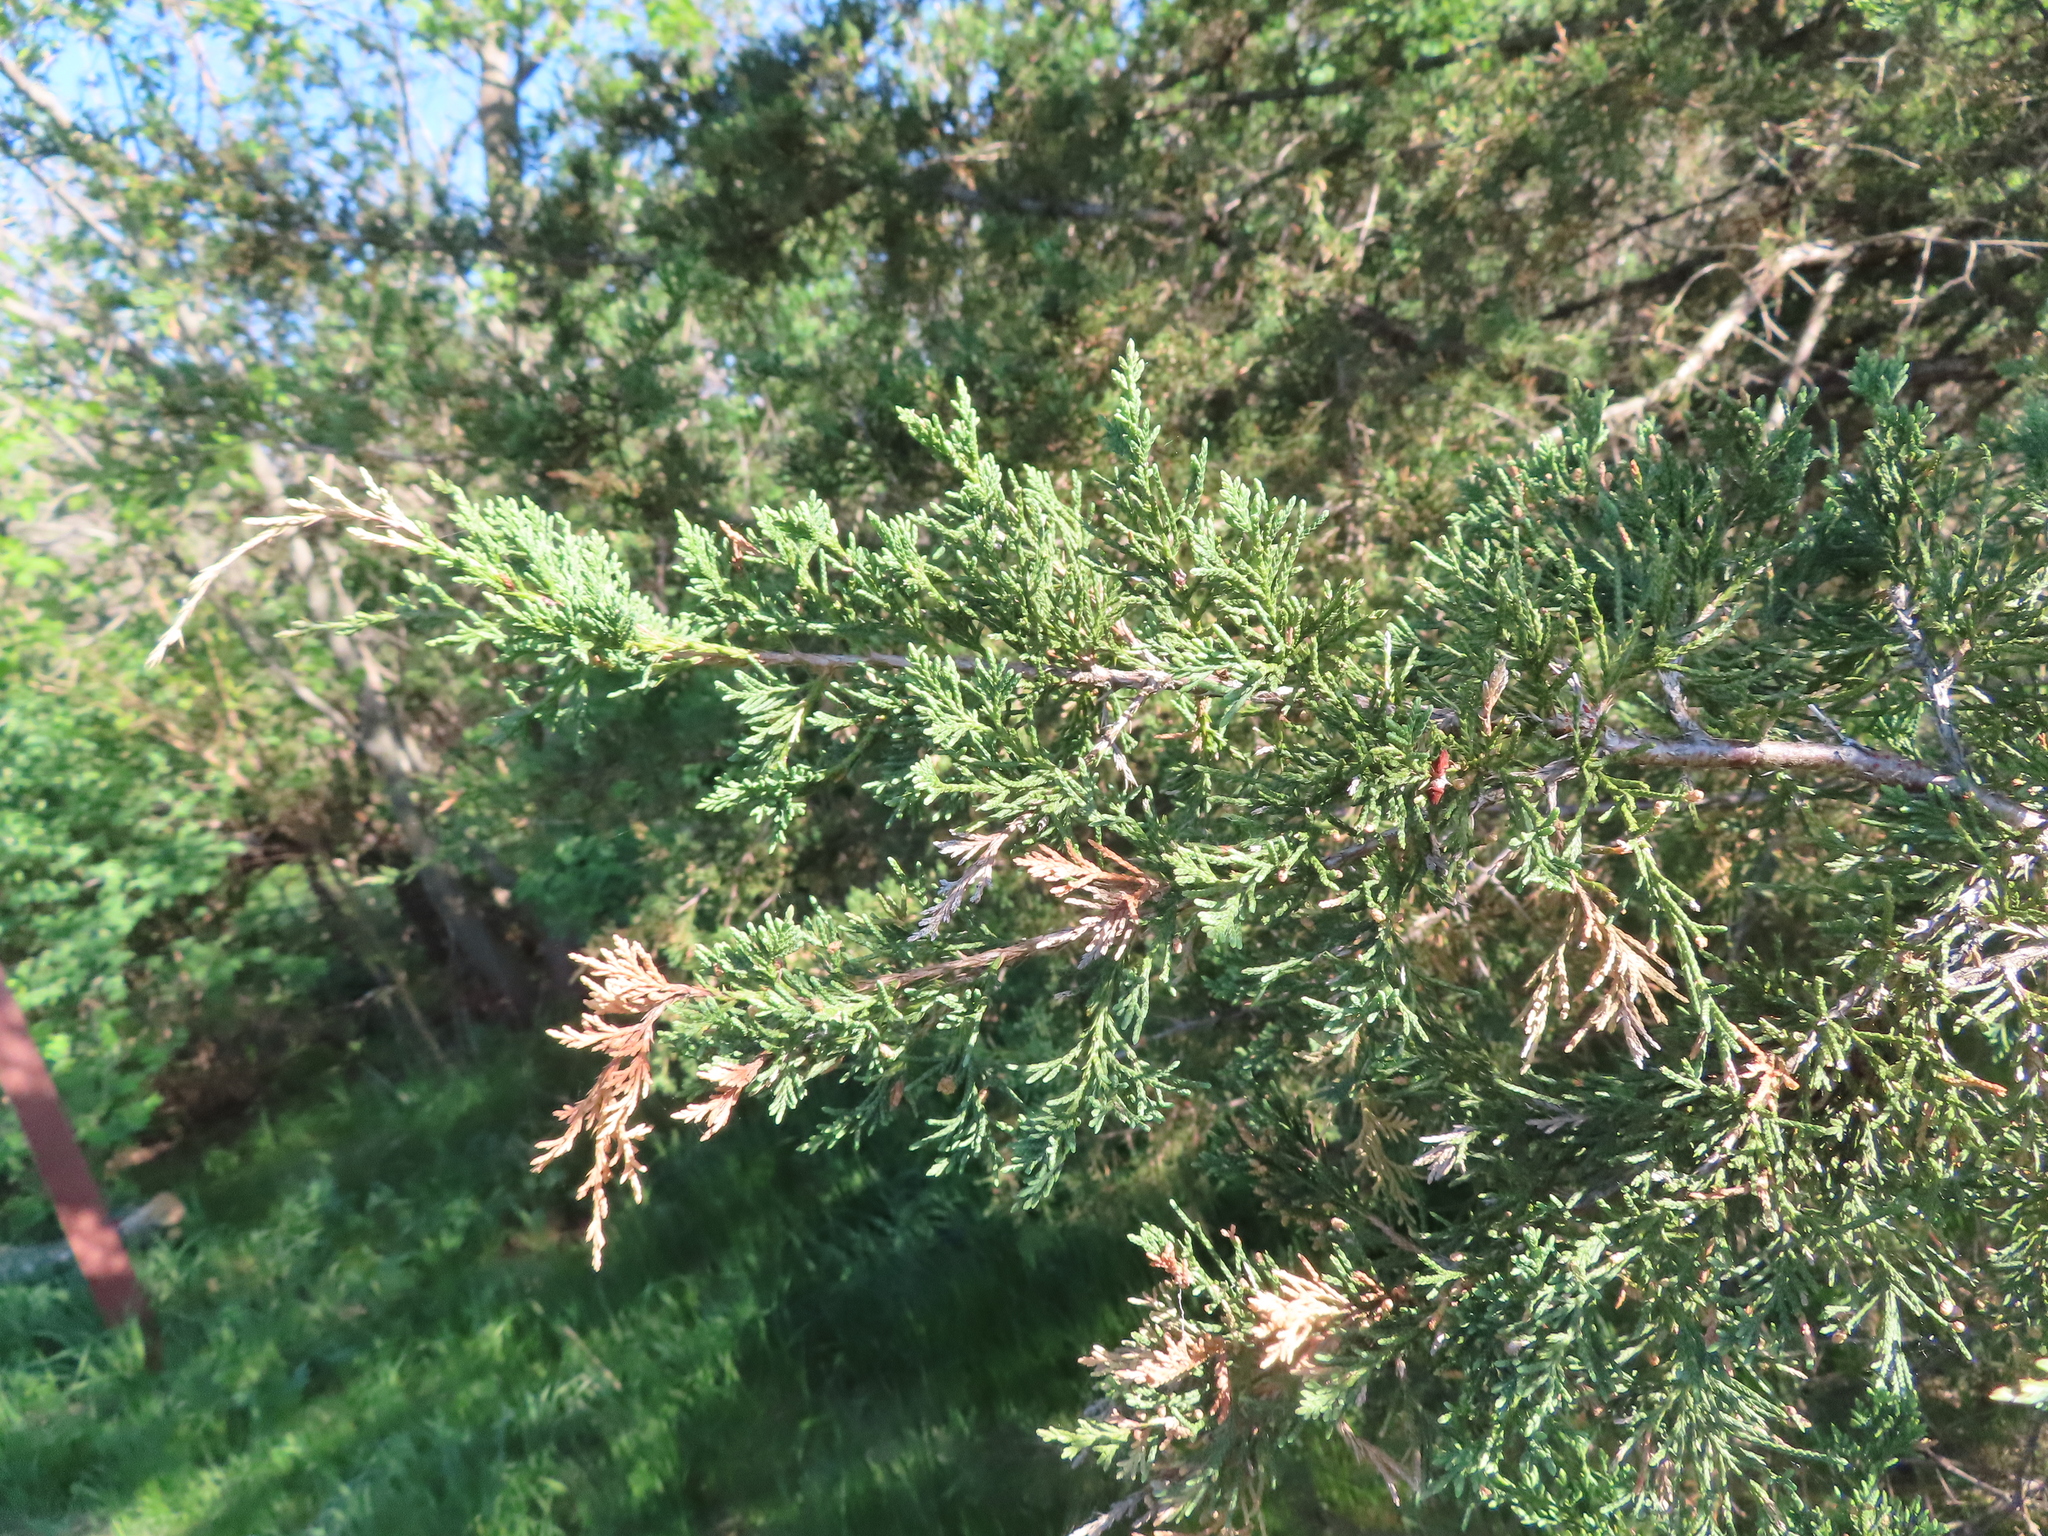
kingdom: Plantae
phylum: Tracheophyta
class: Pinopsida
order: Pinales
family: Cupressaceae
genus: Juniperus
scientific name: Juniperus virginiana
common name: Red juniper
